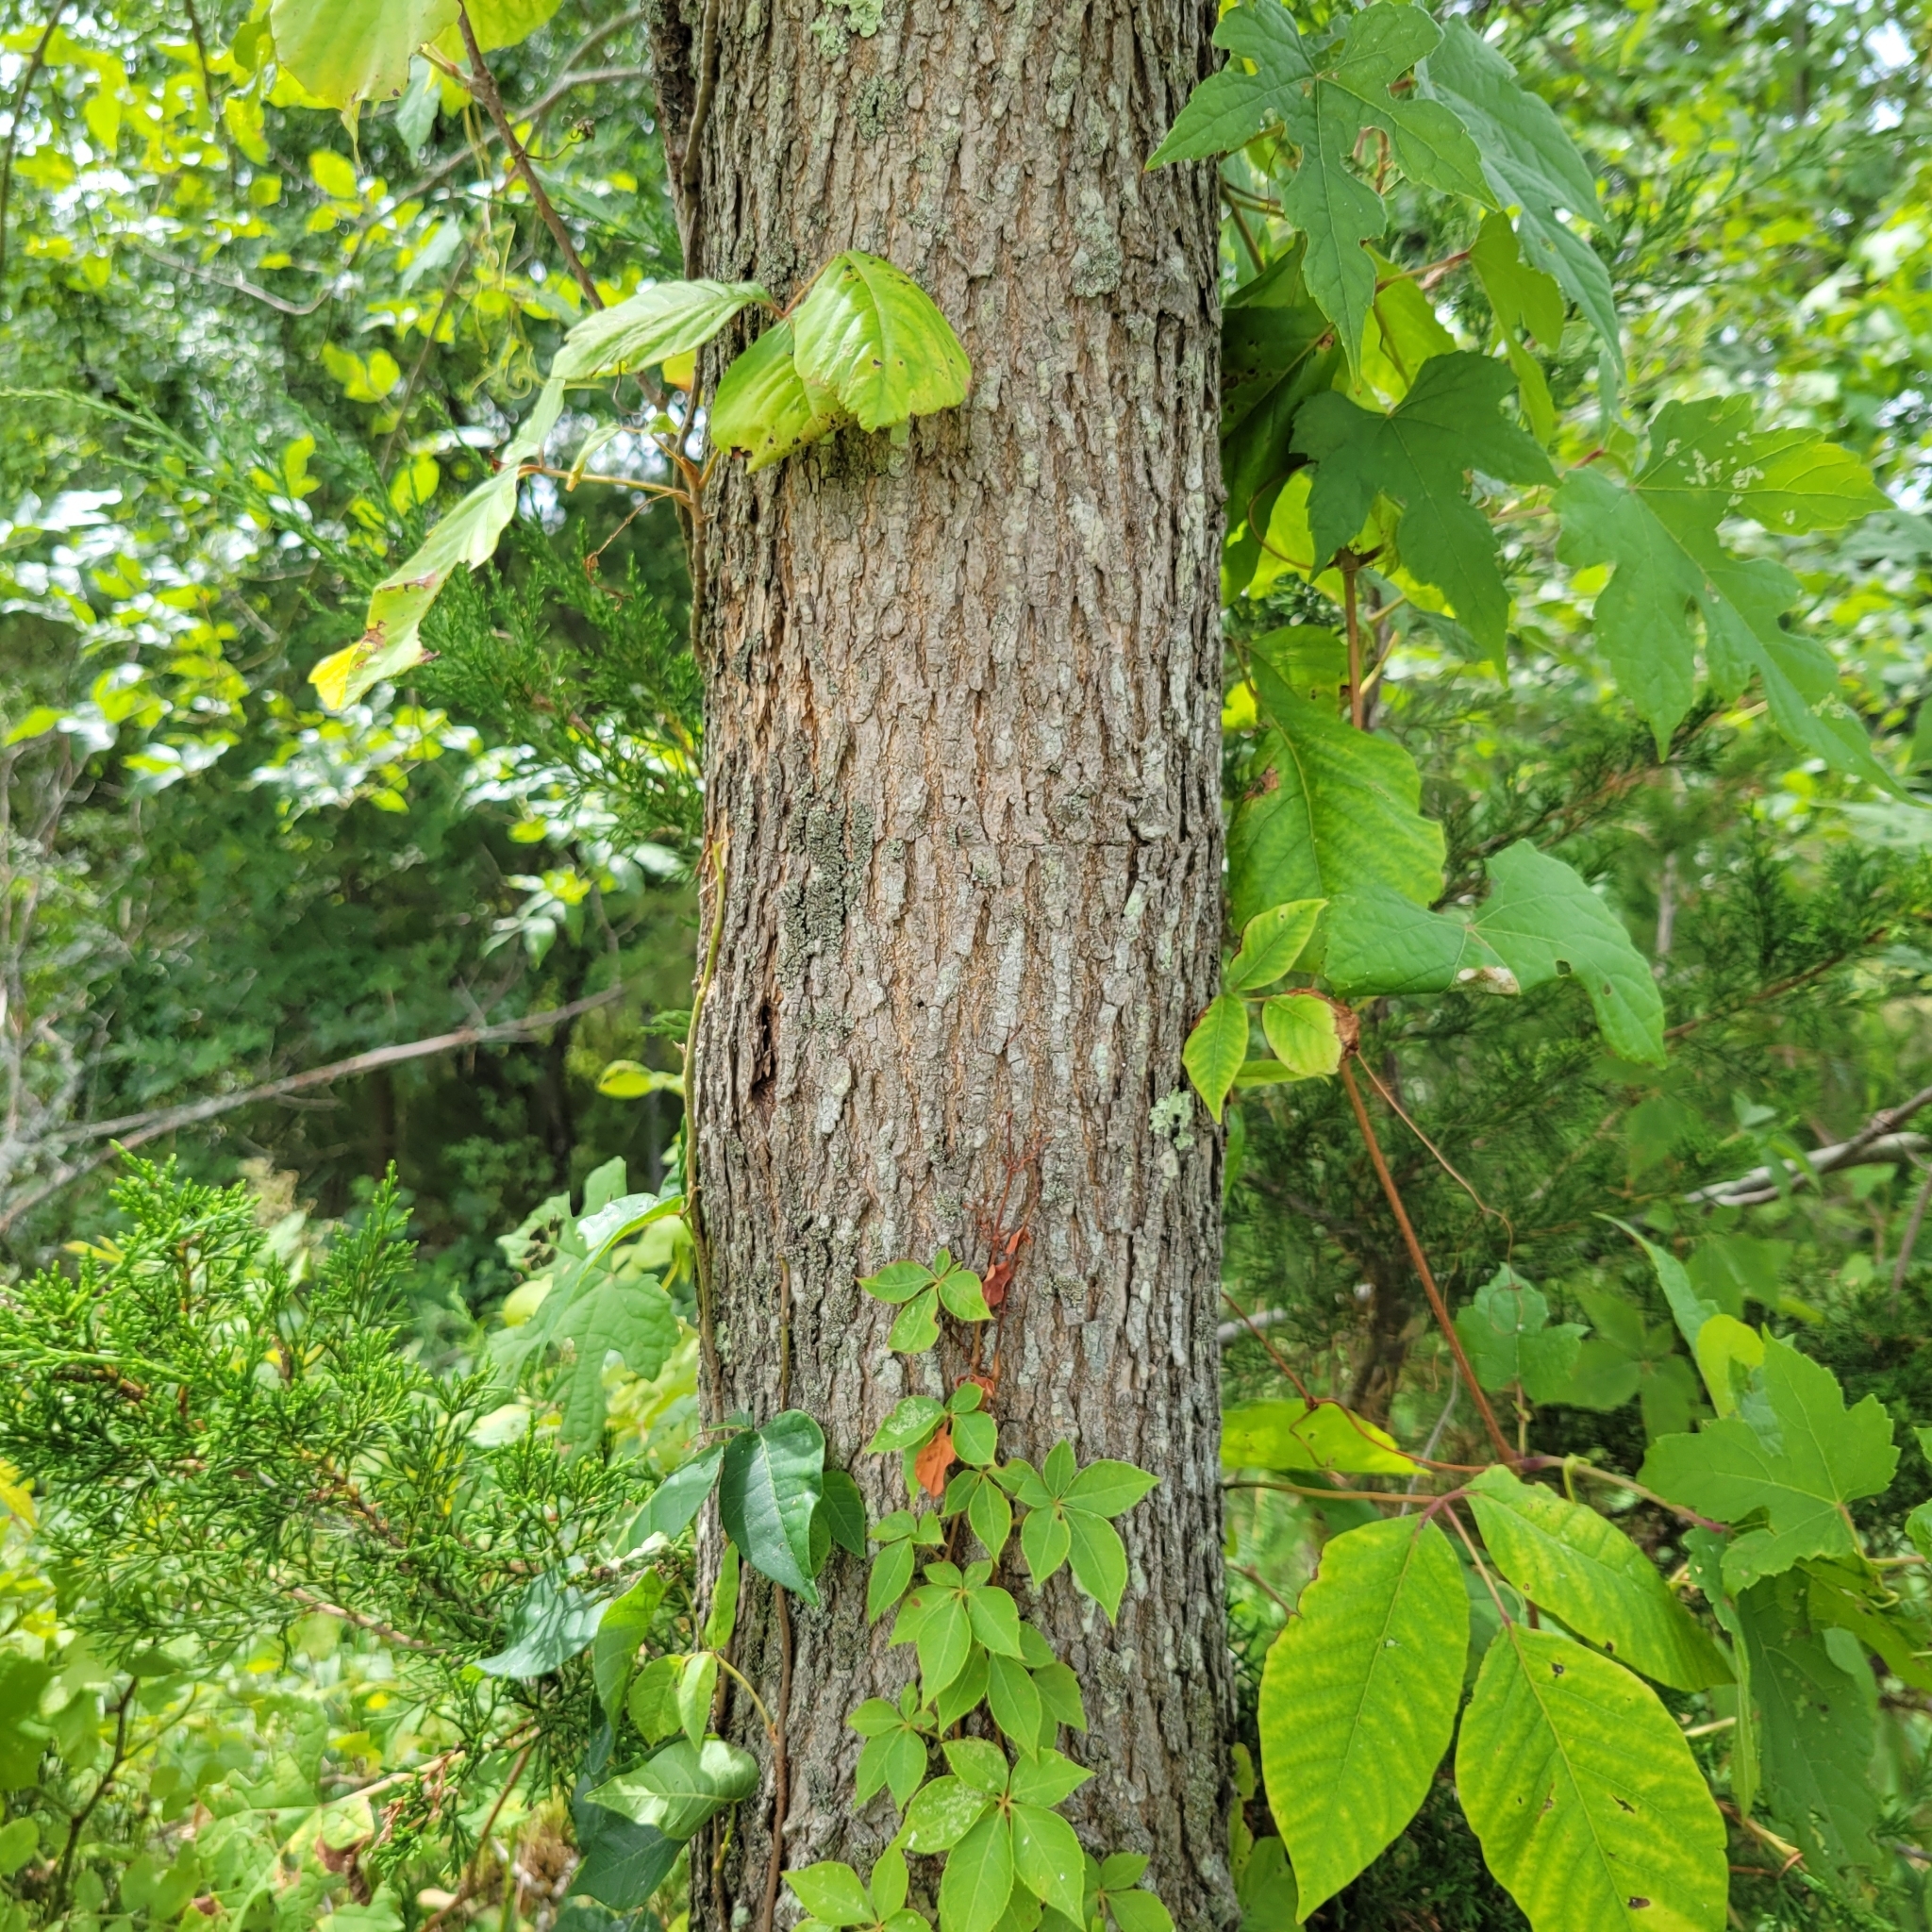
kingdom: Plantae
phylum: Tracheophyta
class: Magnoliopsida
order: Lamiales
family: Oleaceae
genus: Fraxinus
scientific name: Fraxinus pennsylvanica
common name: Green ash
